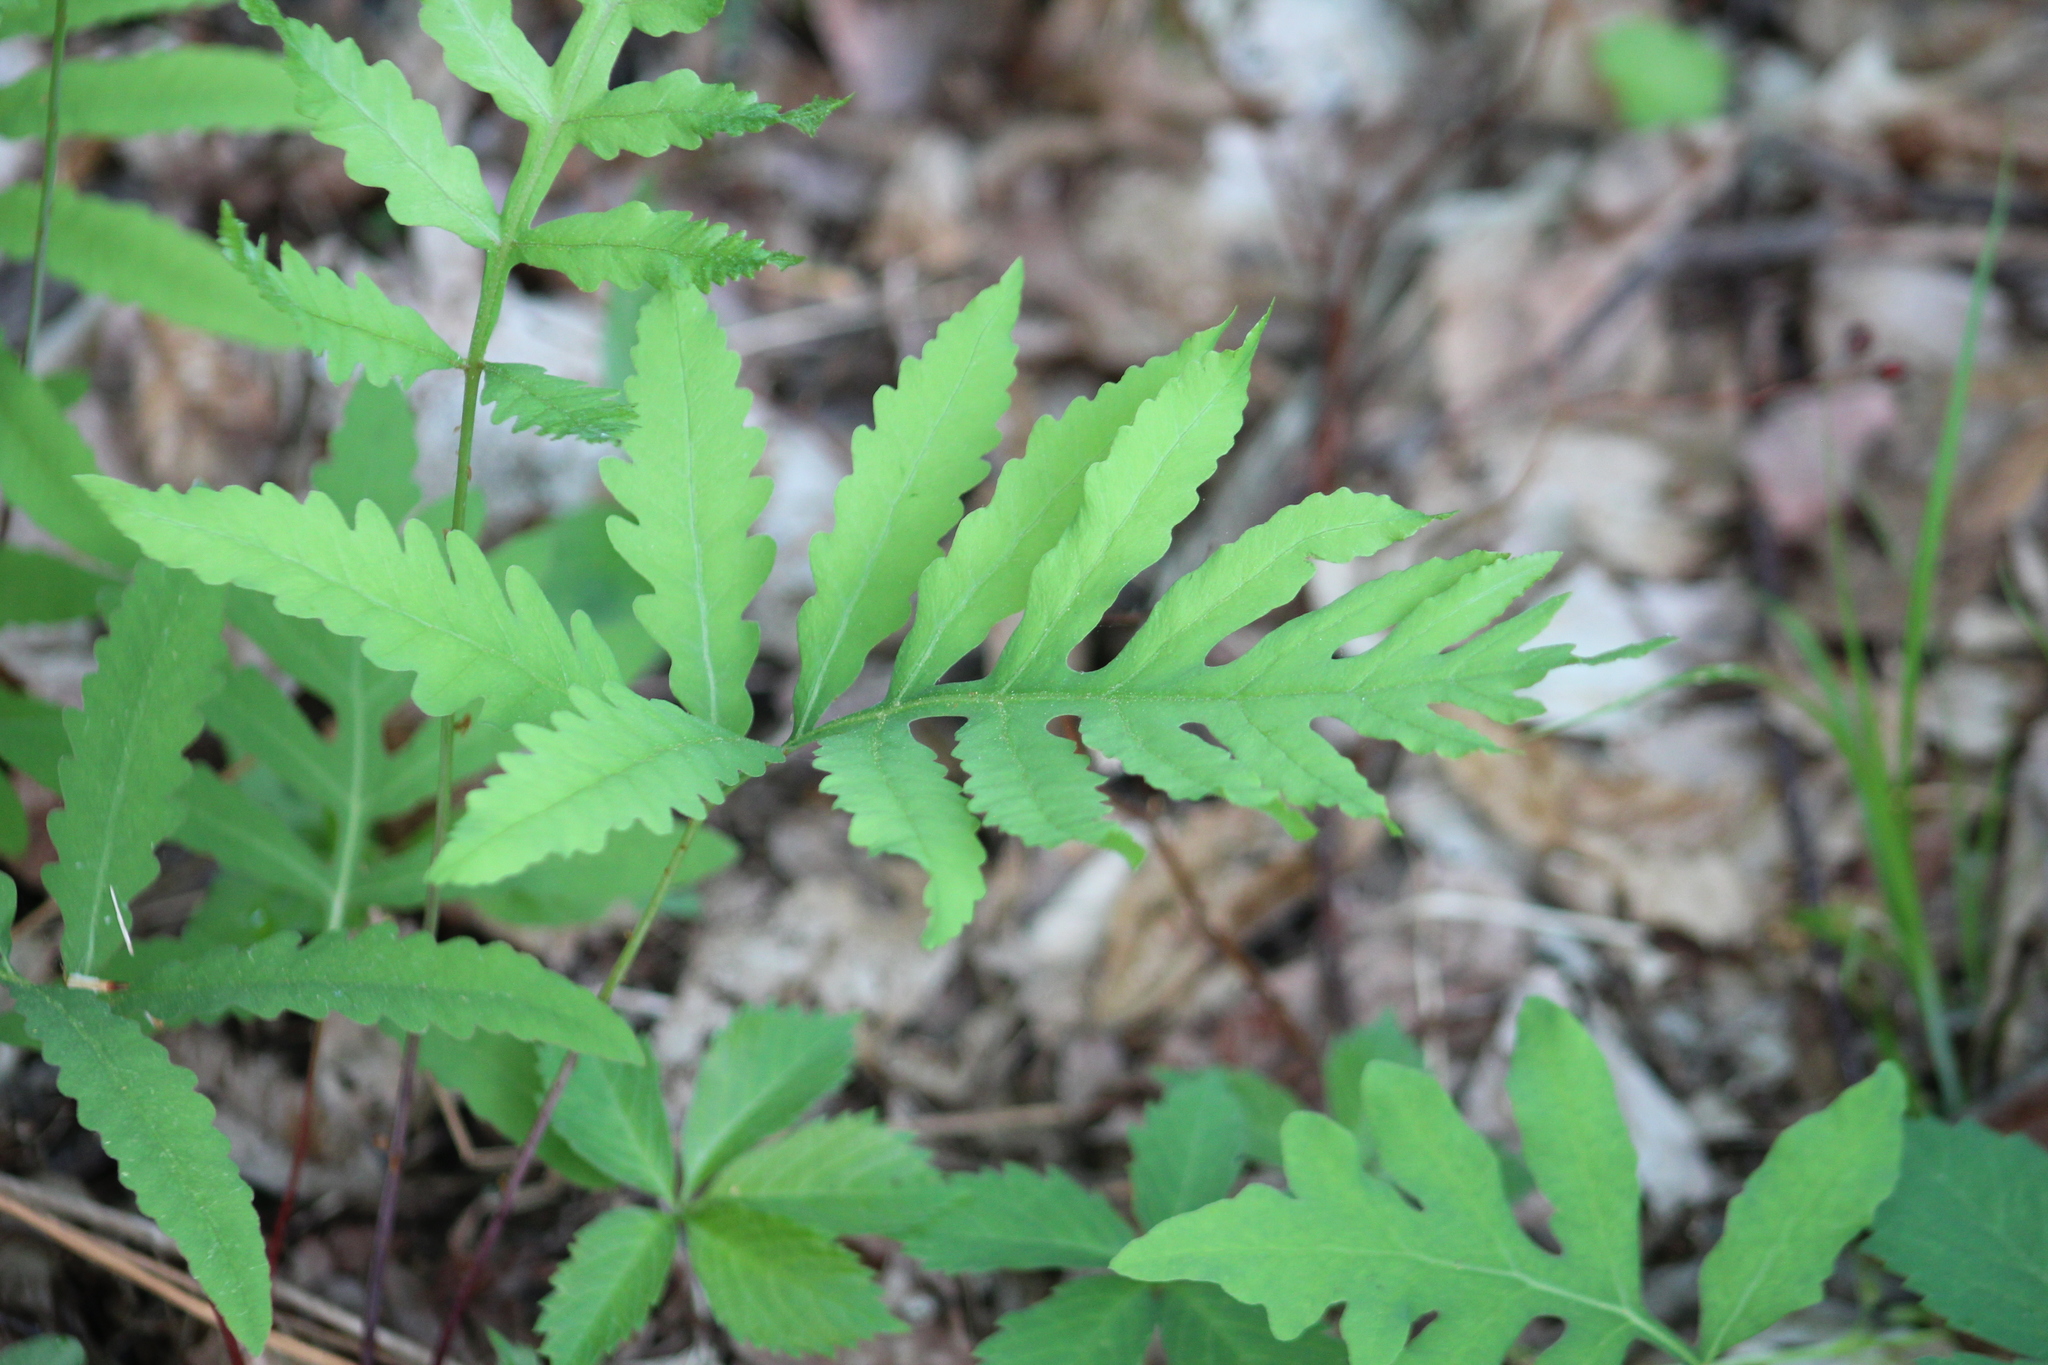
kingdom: Plantae
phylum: Tracheophyta
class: Polypodiopsida
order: Polypodiales
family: Onocleaceae
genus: Onoclea
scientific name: Onoclea sensibilis
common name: Sensitive fern
